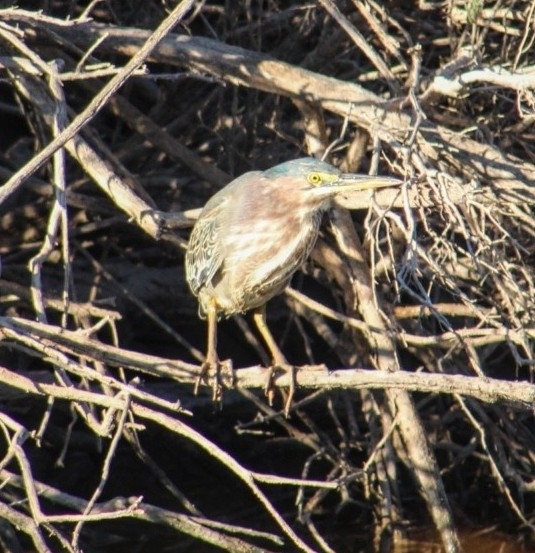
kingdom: Animalia
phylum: Chordata
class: Aves
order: Pelecaniformes
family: Ardeidae
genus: Butorides
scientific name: Butorides virescens
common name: Green heron
